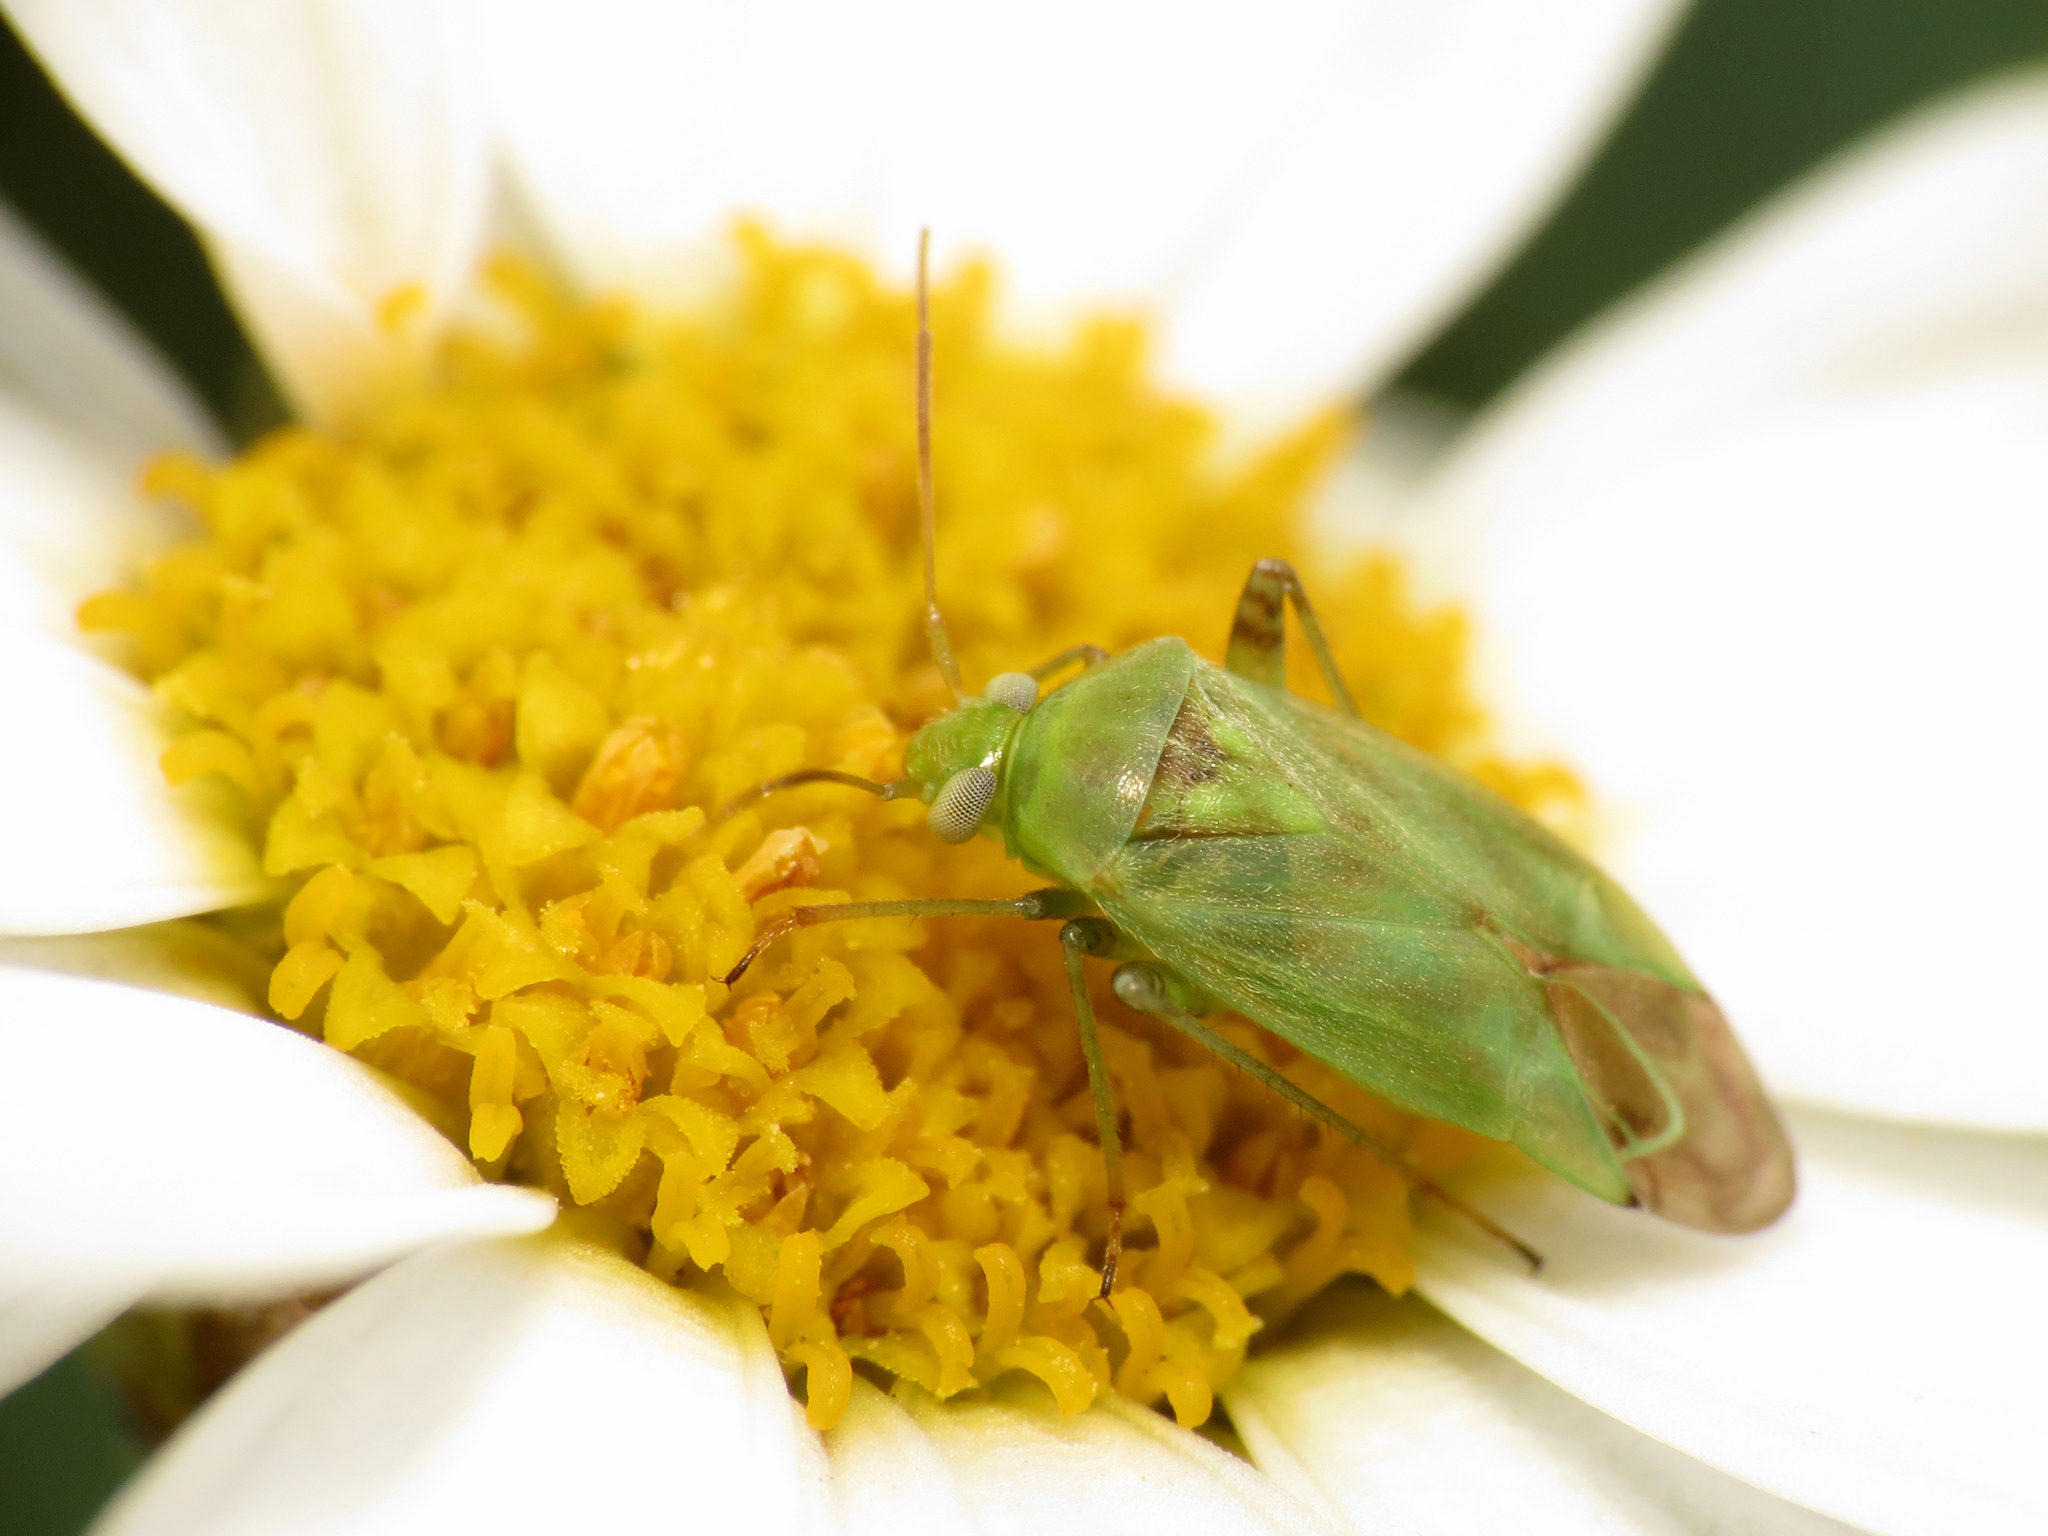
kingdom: Animalia
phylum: Arthropoda
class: Insecta
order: Hemiptera
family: Miridae
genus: Taylorilygus
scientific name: Taylorilygus apicalis
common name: Plant bug
